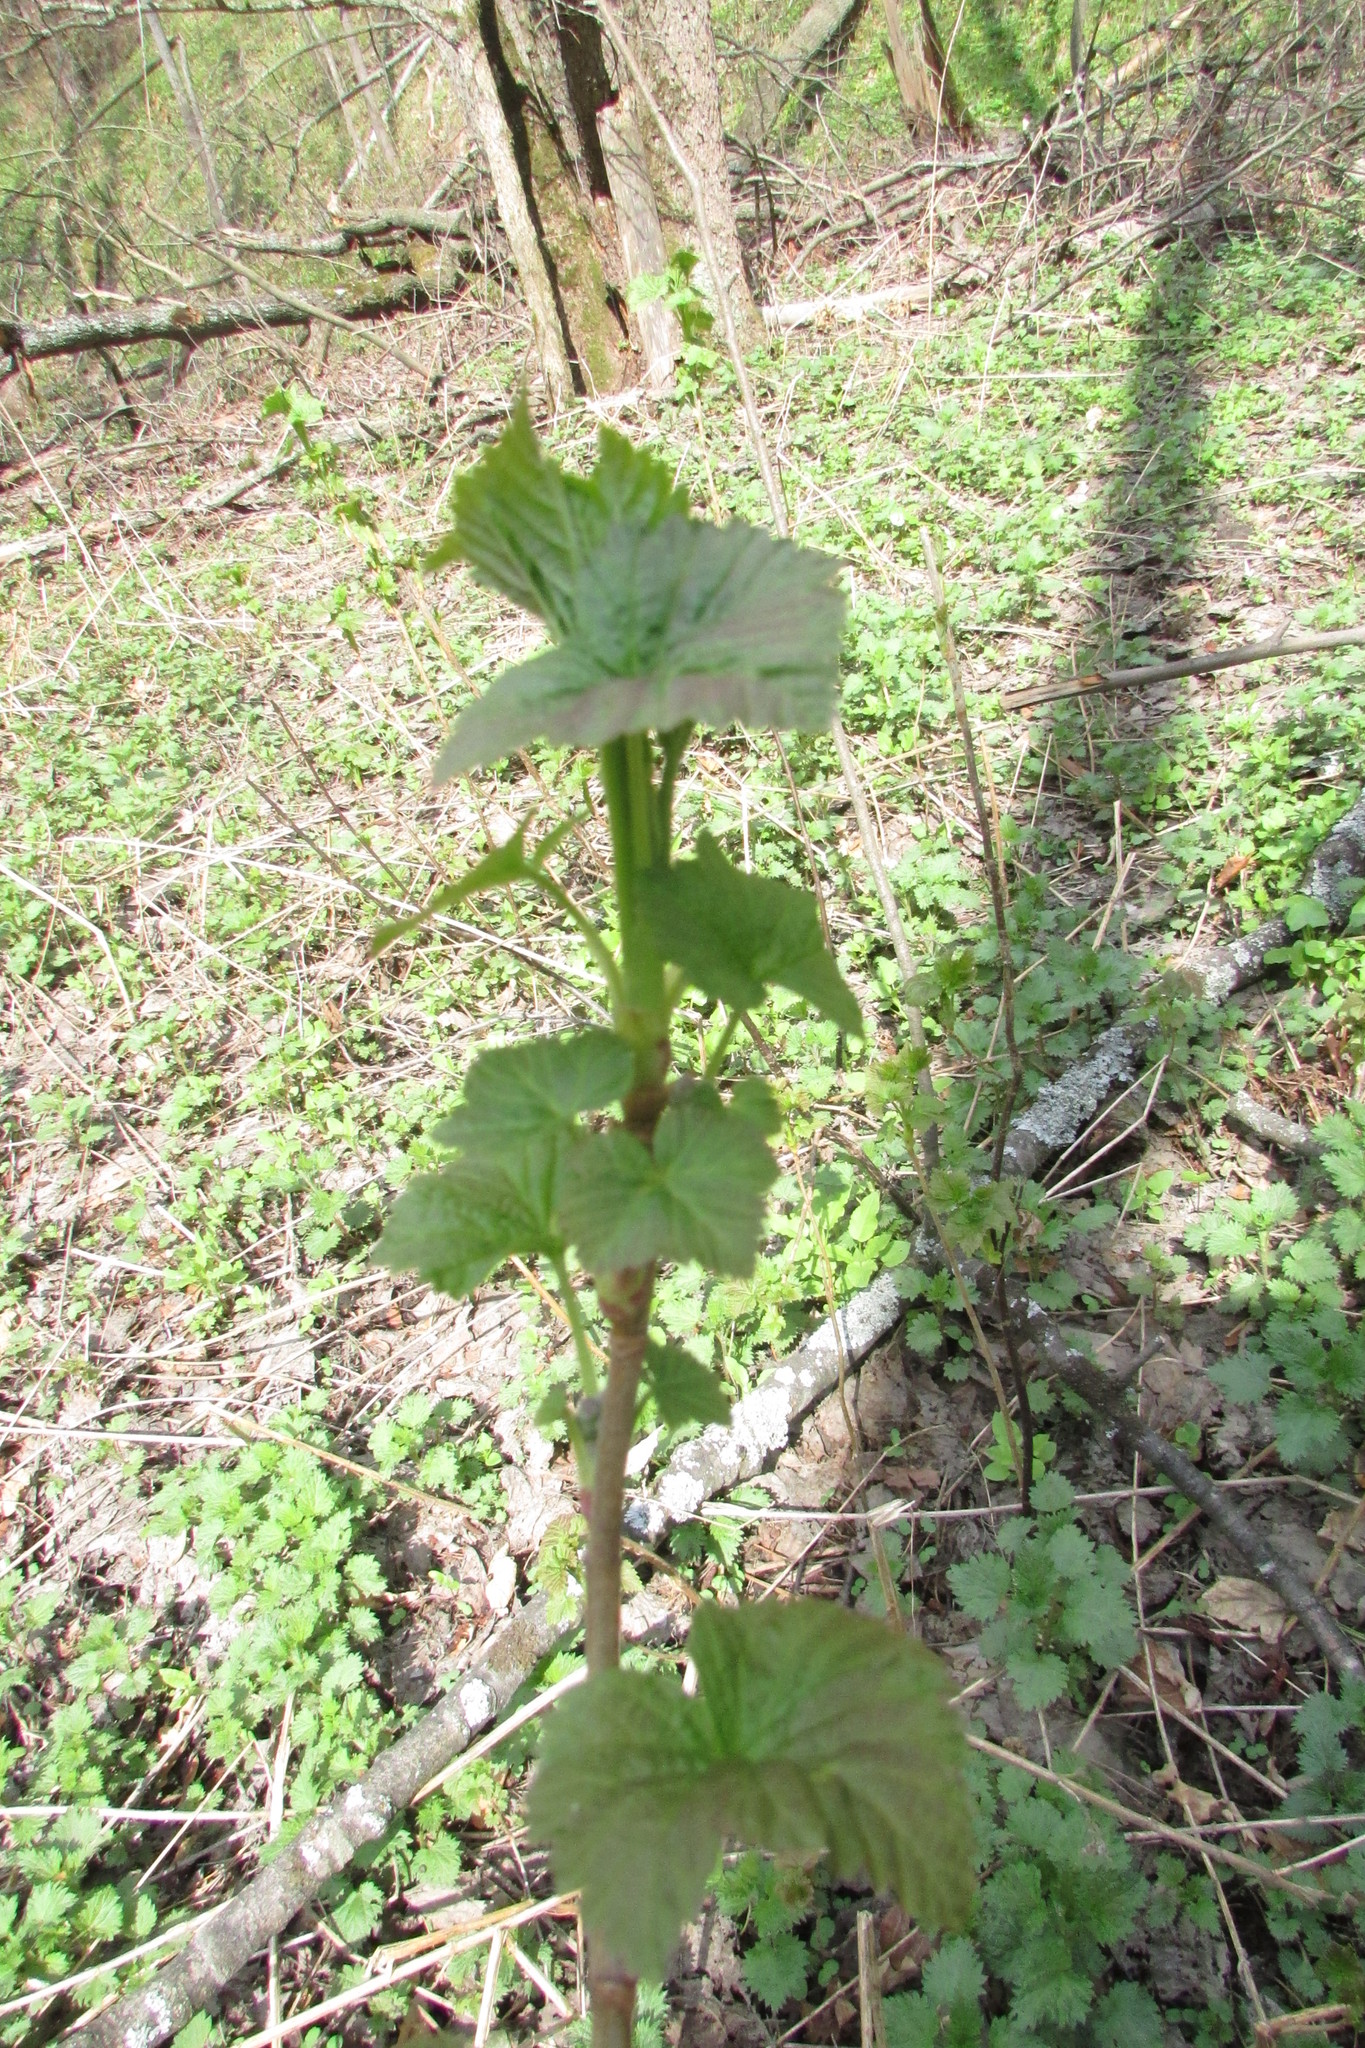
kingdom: Plantae
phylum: Tracheophyta
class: Magnoliopsida
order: Saxifragales
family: Grossulariaceae
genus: Ribes
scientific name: Ribes nigrum
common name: Black currant
